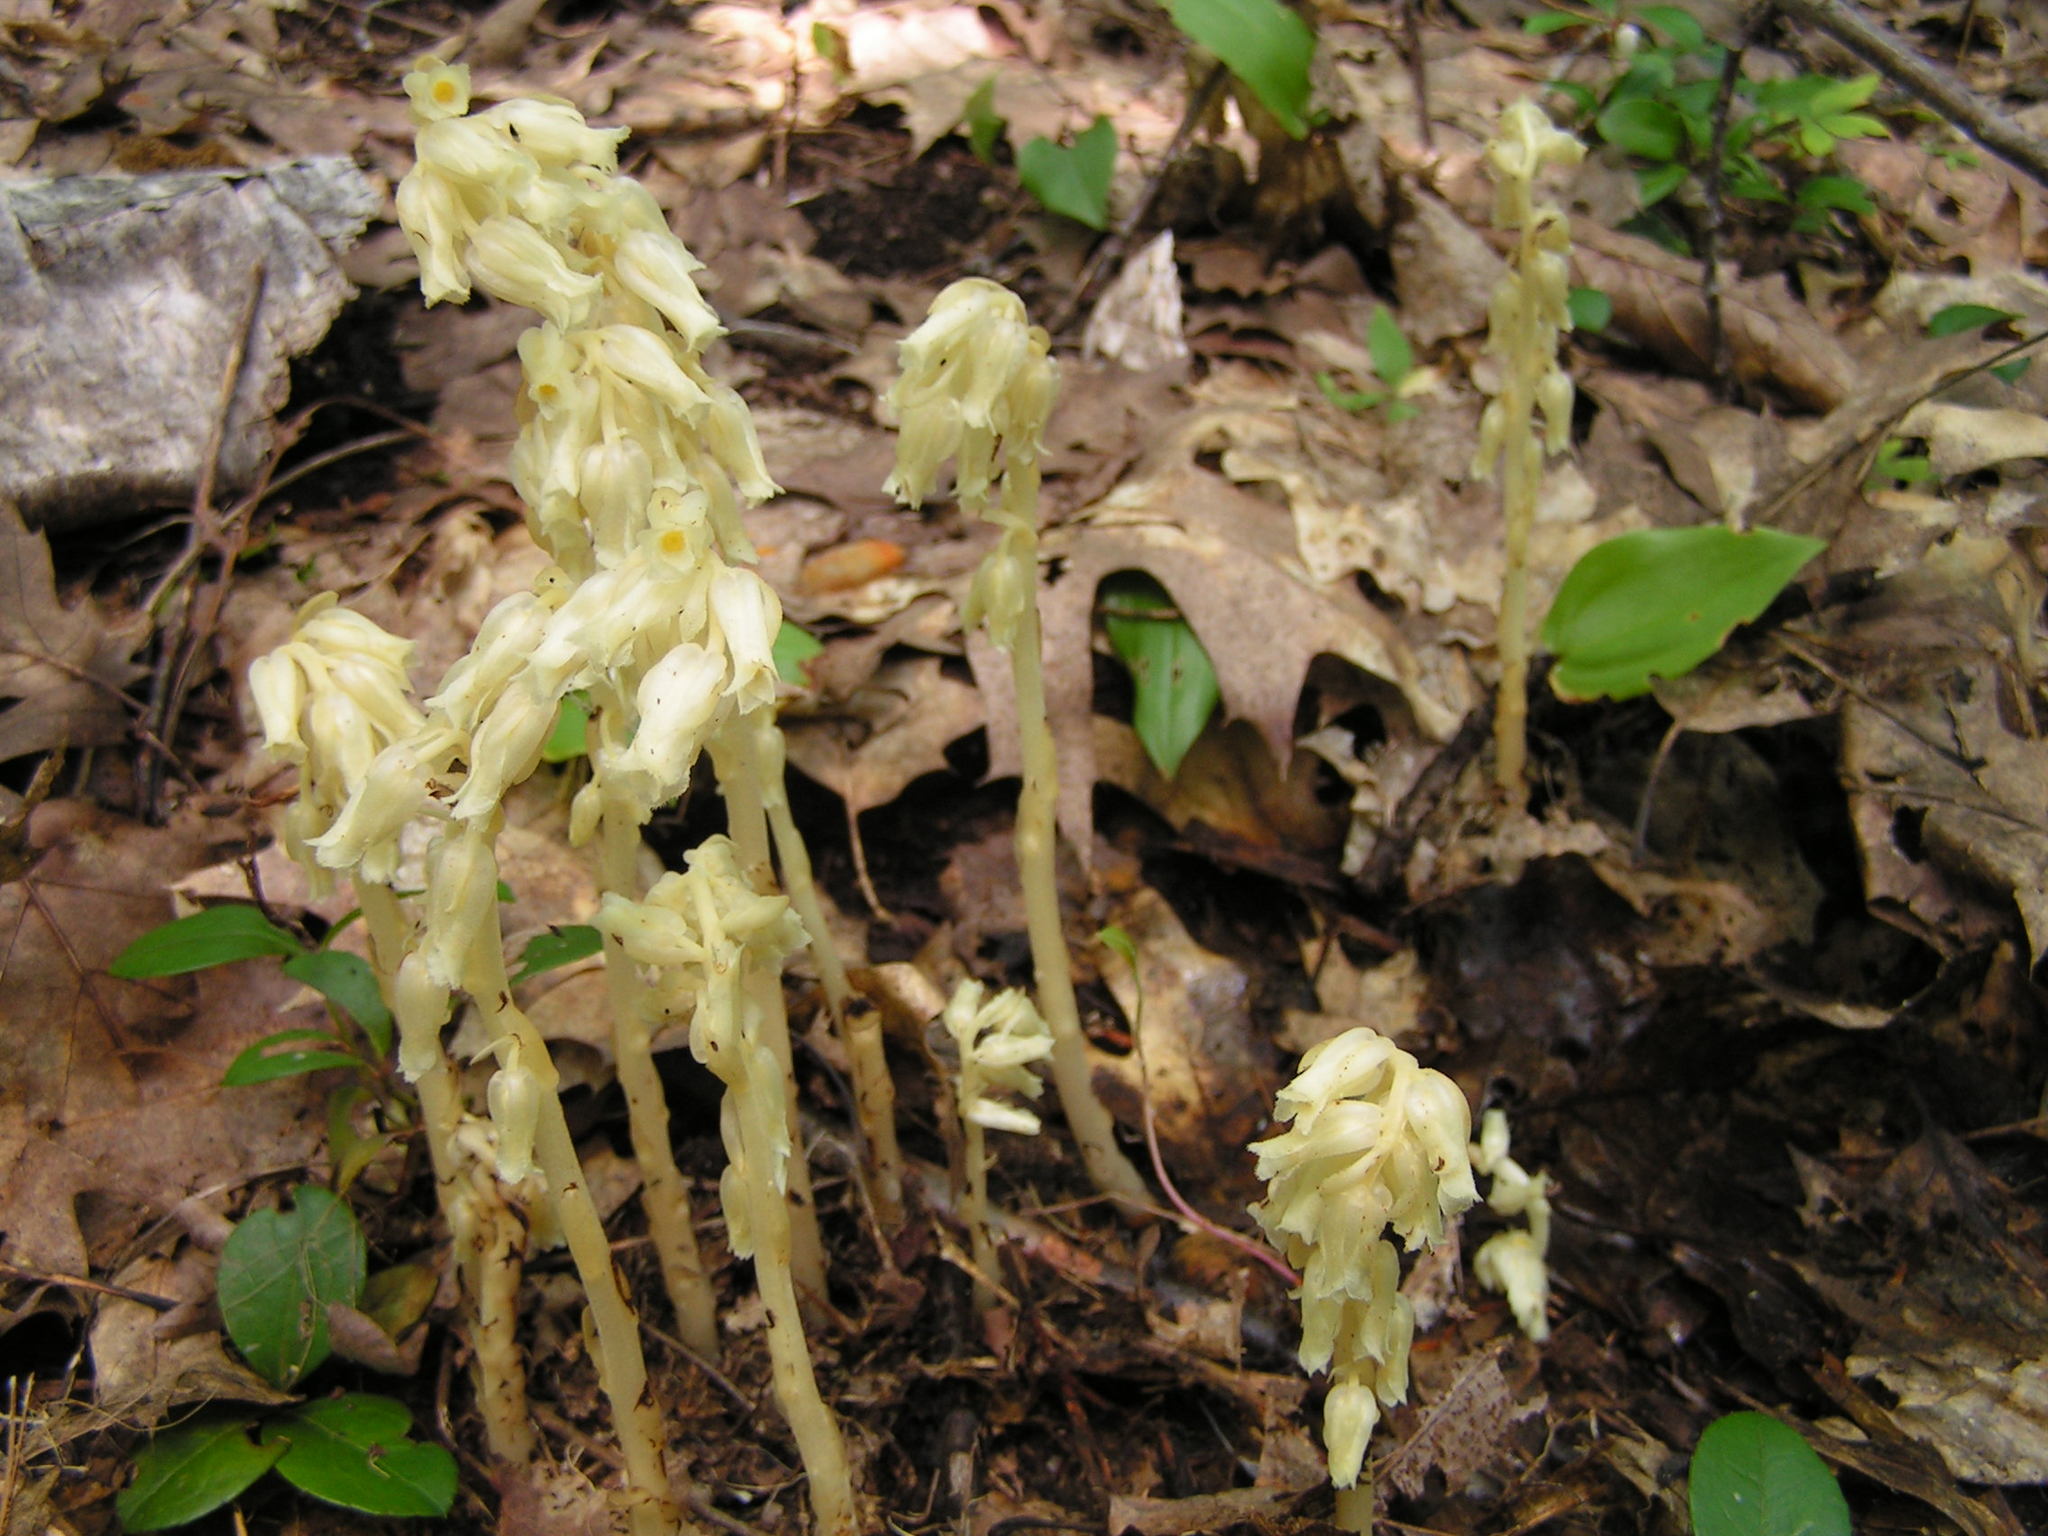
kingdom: Plantae
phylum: Tracheophyta
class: Magnoliopsida
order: Ericales
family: Ericaceae
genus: Hypopitys
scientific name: Hypopitys monotropa
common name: Yellow bird's-nest
